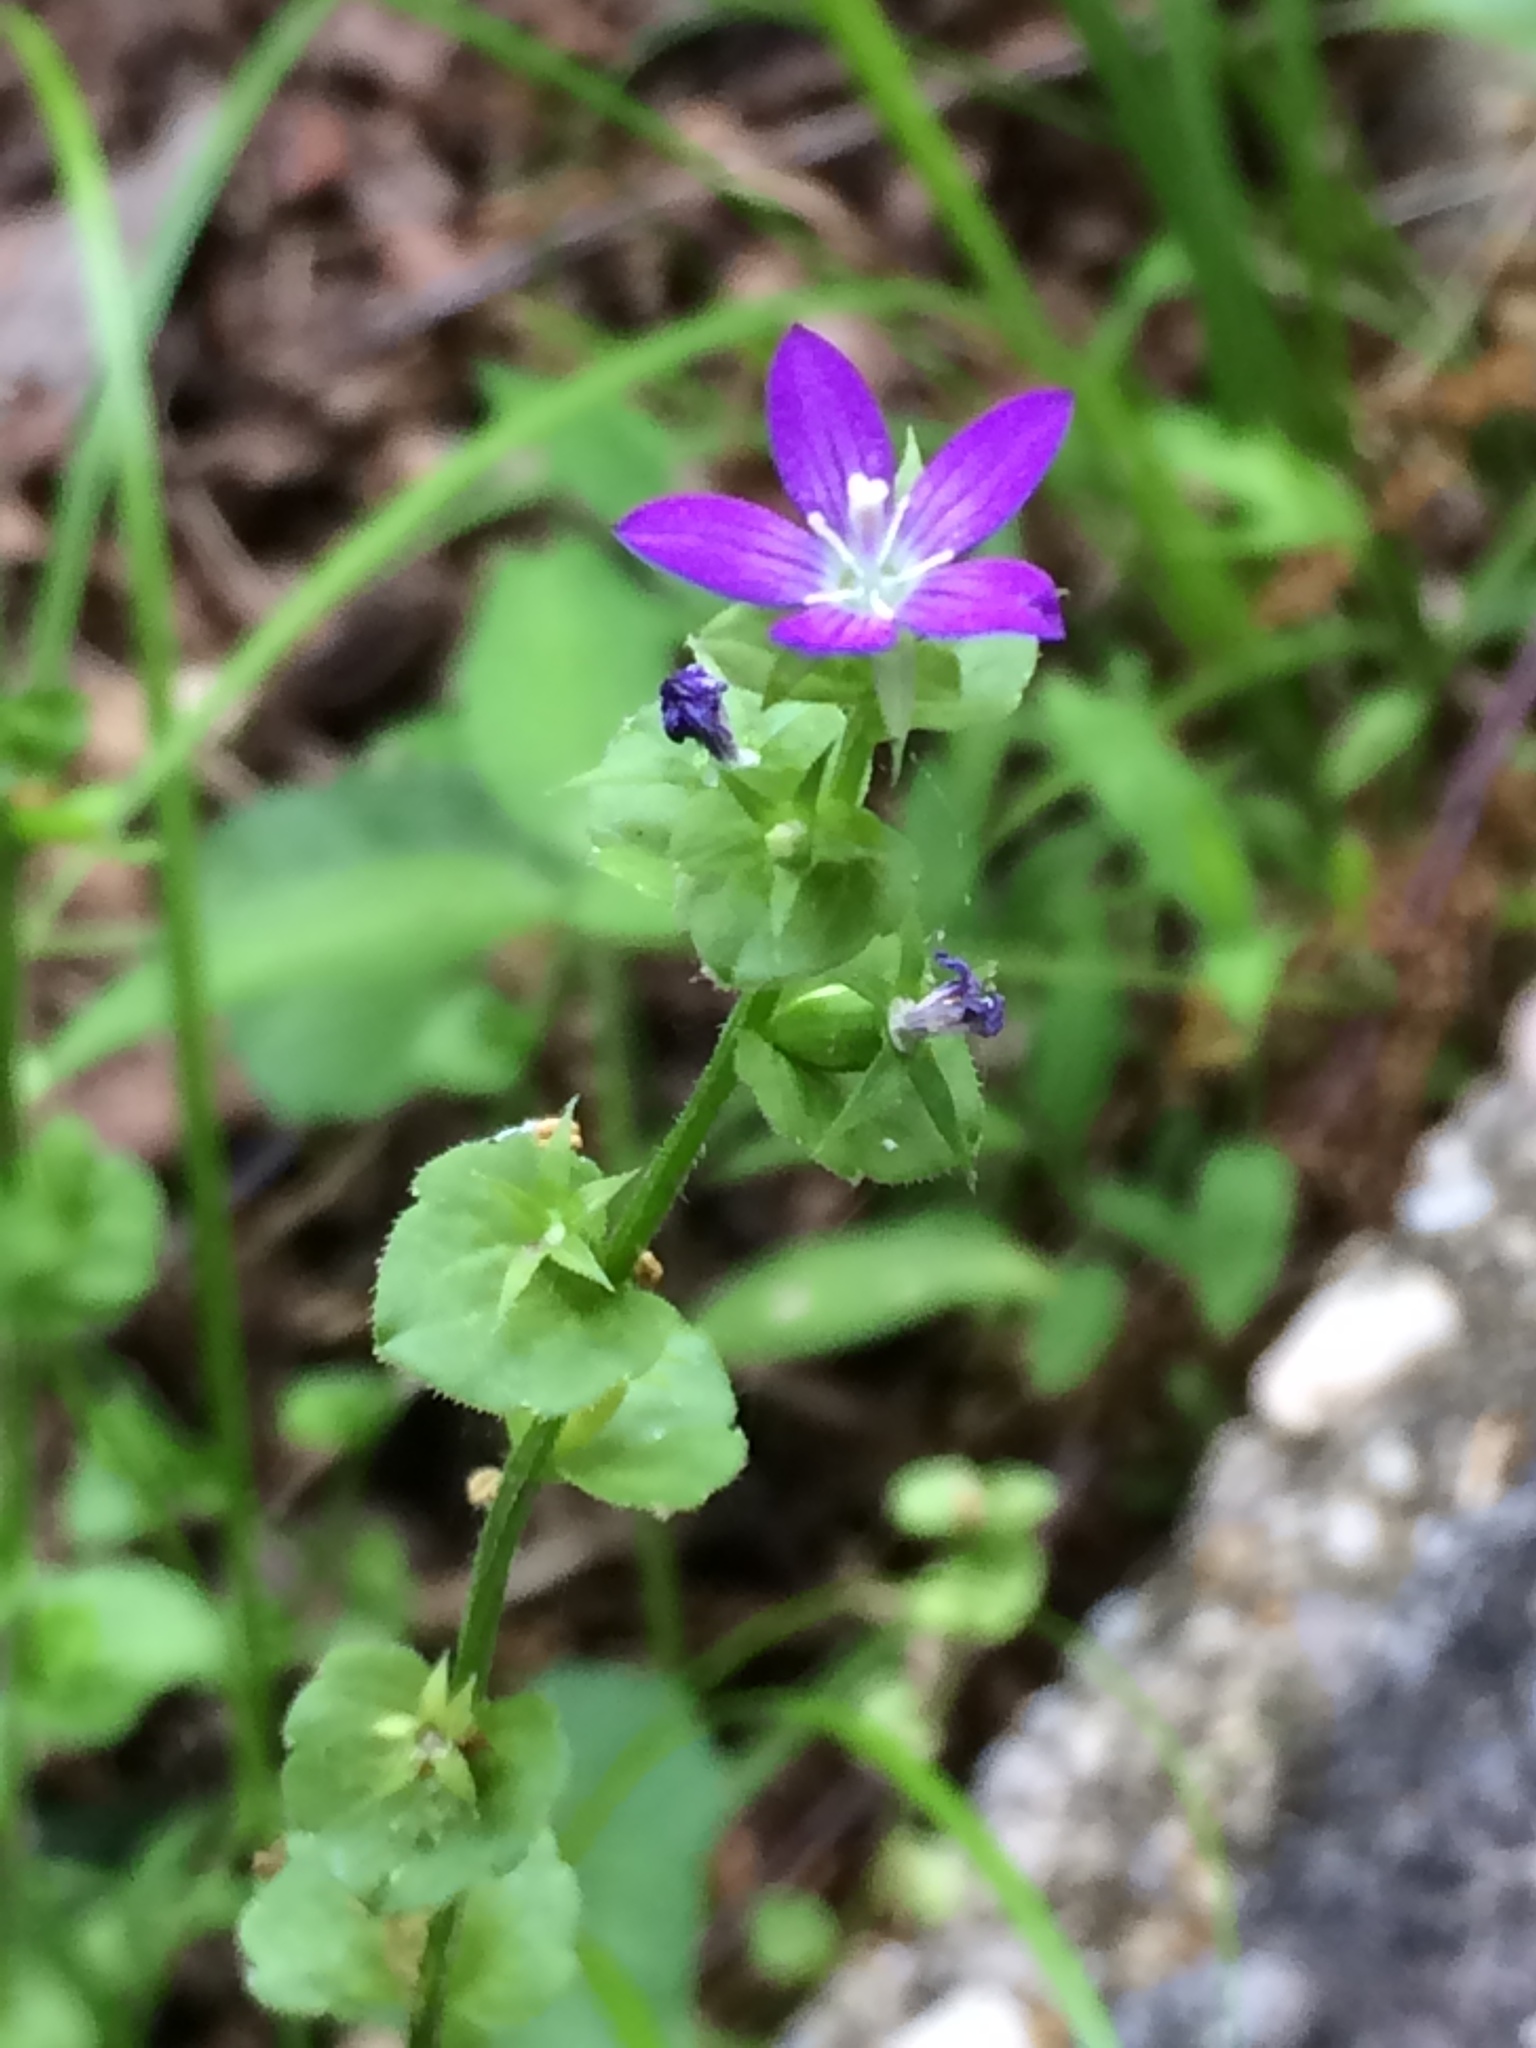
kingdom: Plantae
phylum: Tracheophyta
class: Magnoliopsida
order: Asterales
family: Campanulaceae
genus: Triodanis
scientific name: Triodanis perfoliata
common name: Clasping venus' looking-glass
